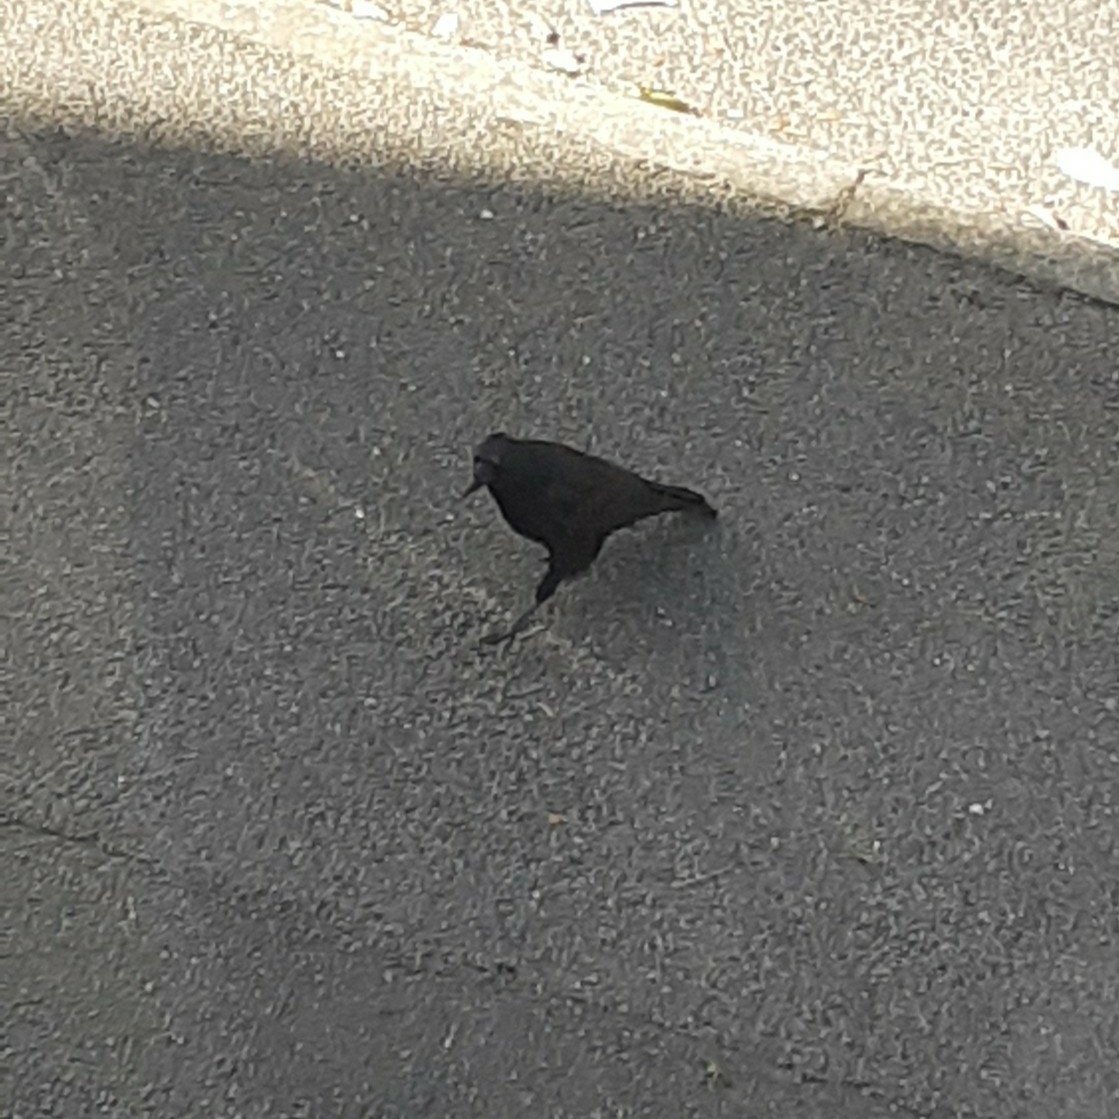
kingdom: Animalia
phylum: Chordata
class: Aves
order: Passeriformes
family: Corvidae
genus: Corvus
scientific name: Corvus corone
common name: Carrion crow
